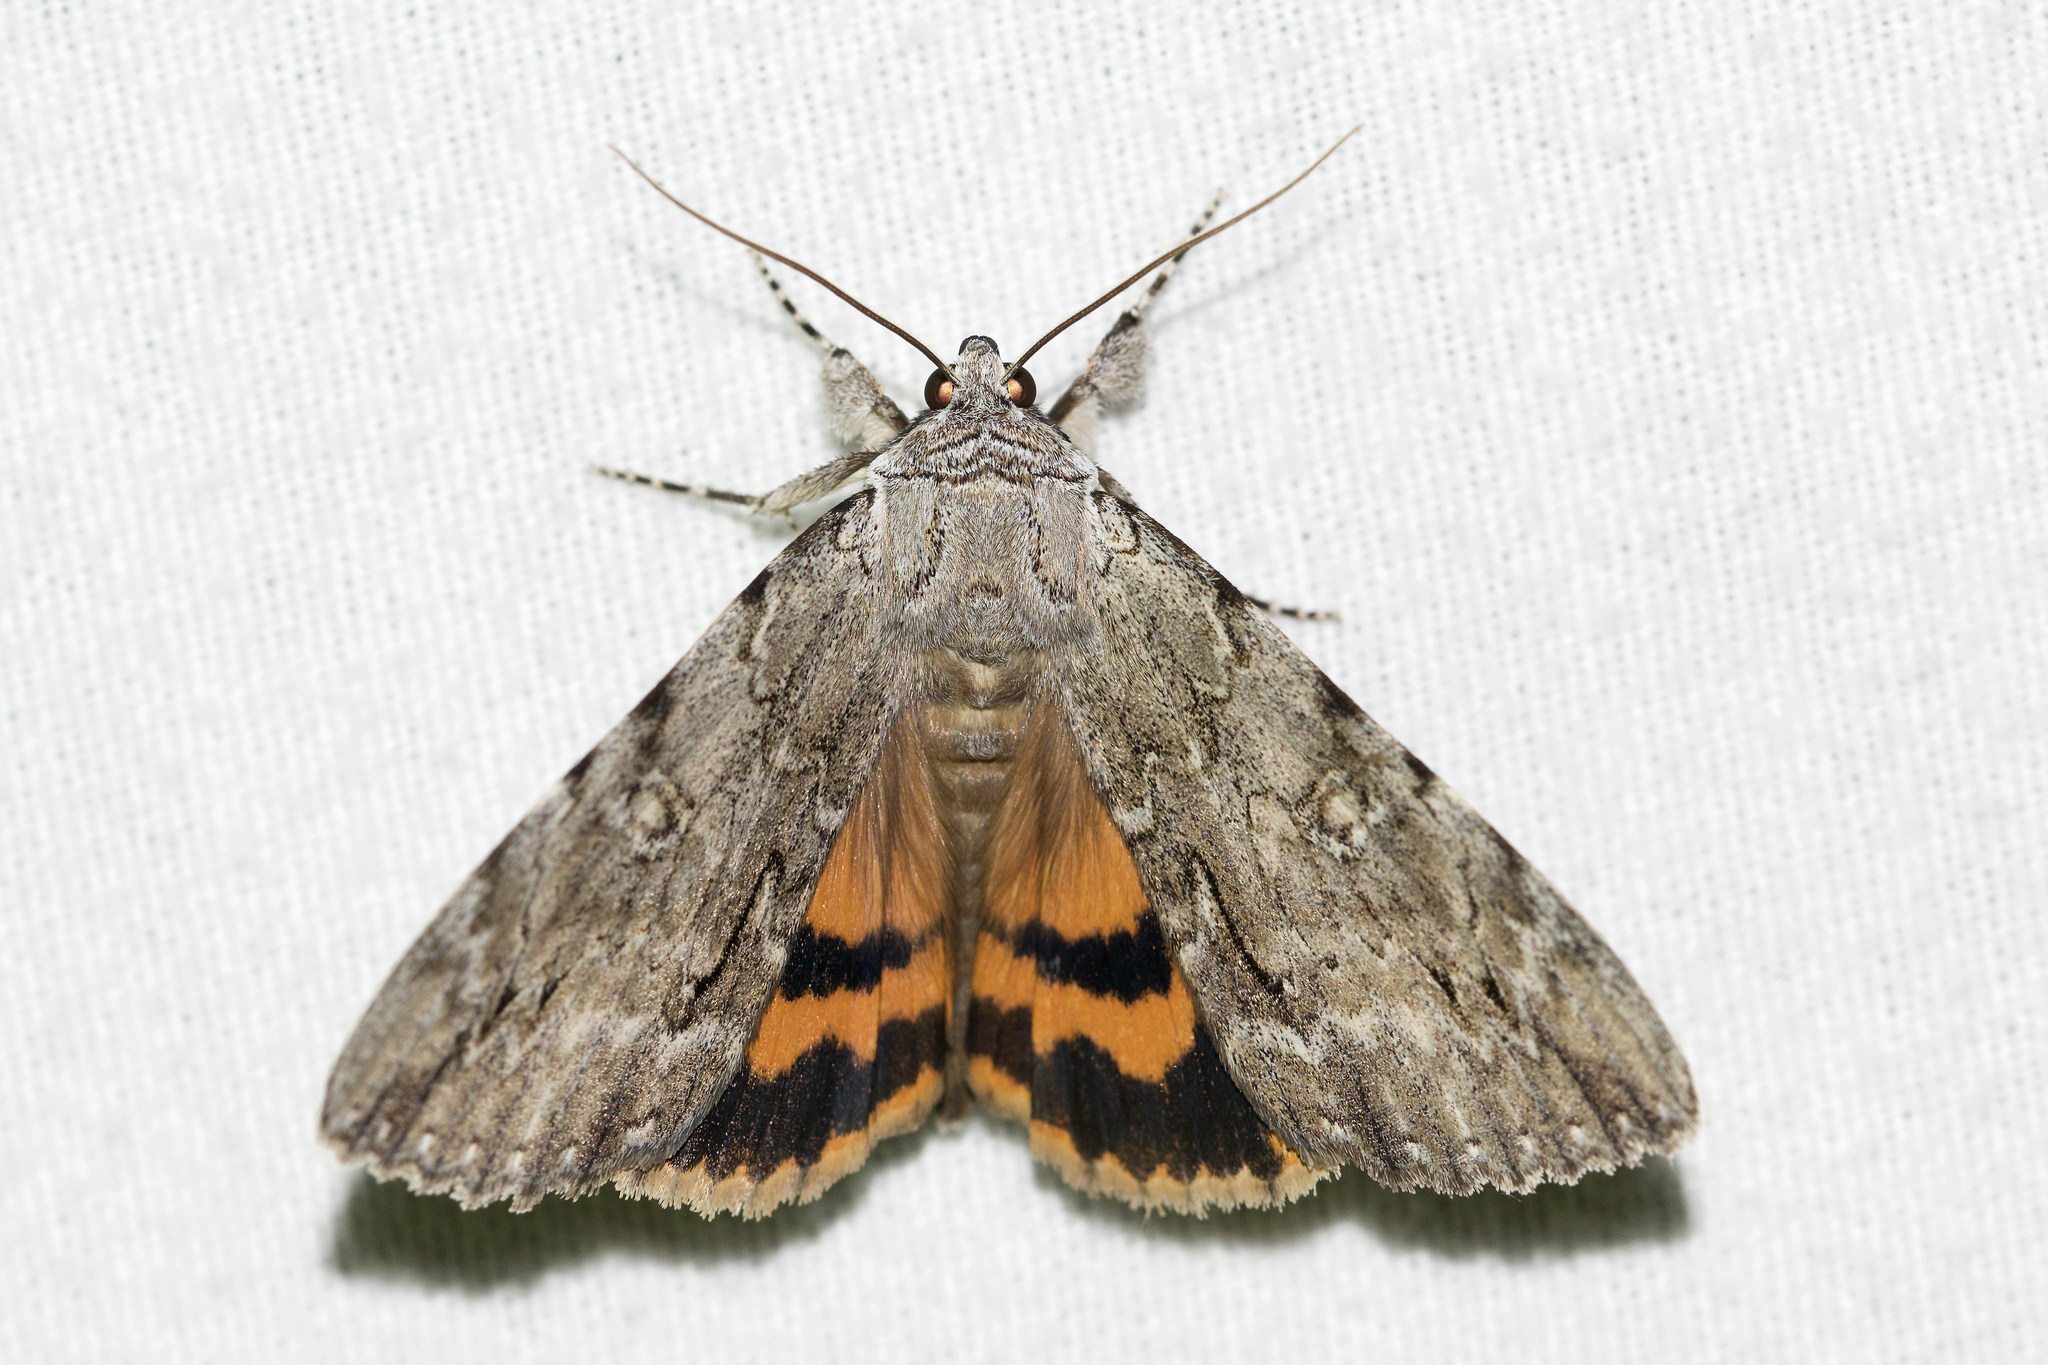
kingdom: Animalia
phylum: Arthropoda
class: Insecta
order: Lepidoptera
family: Erebidae
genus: Catocala
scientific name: Catocala habilis
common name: Habilis underwing
